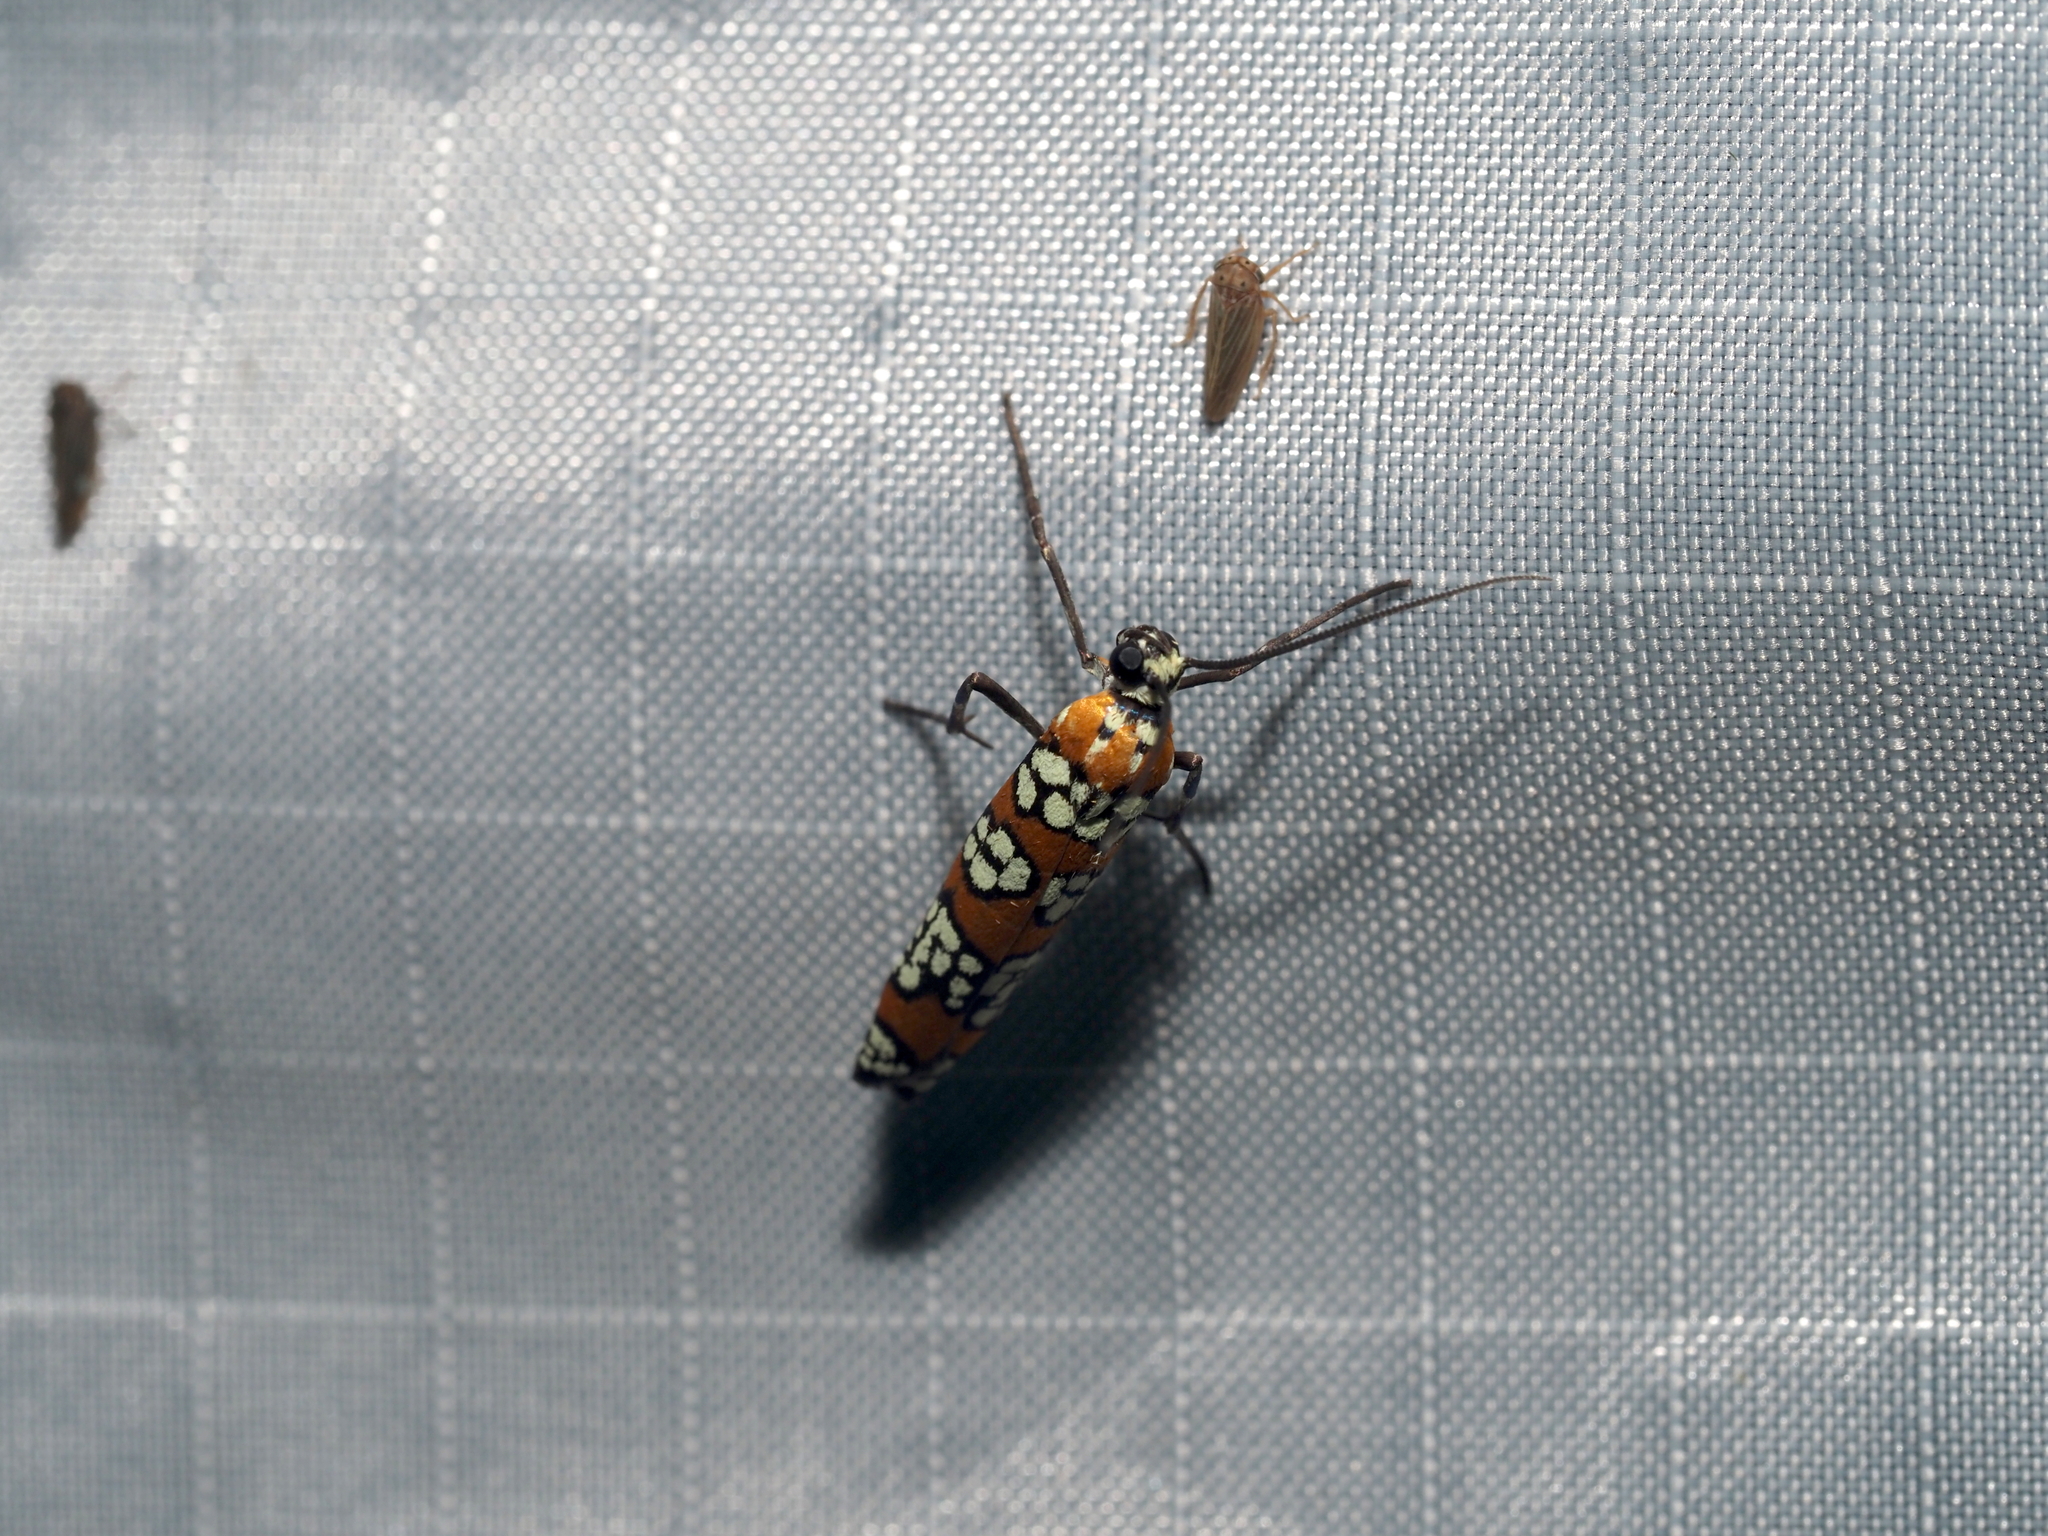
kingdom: Animalia
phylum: Arthropoda
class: Insecta
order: Lepidoptera
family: Attevidae
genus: Atteva
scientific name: Atteva punctella
